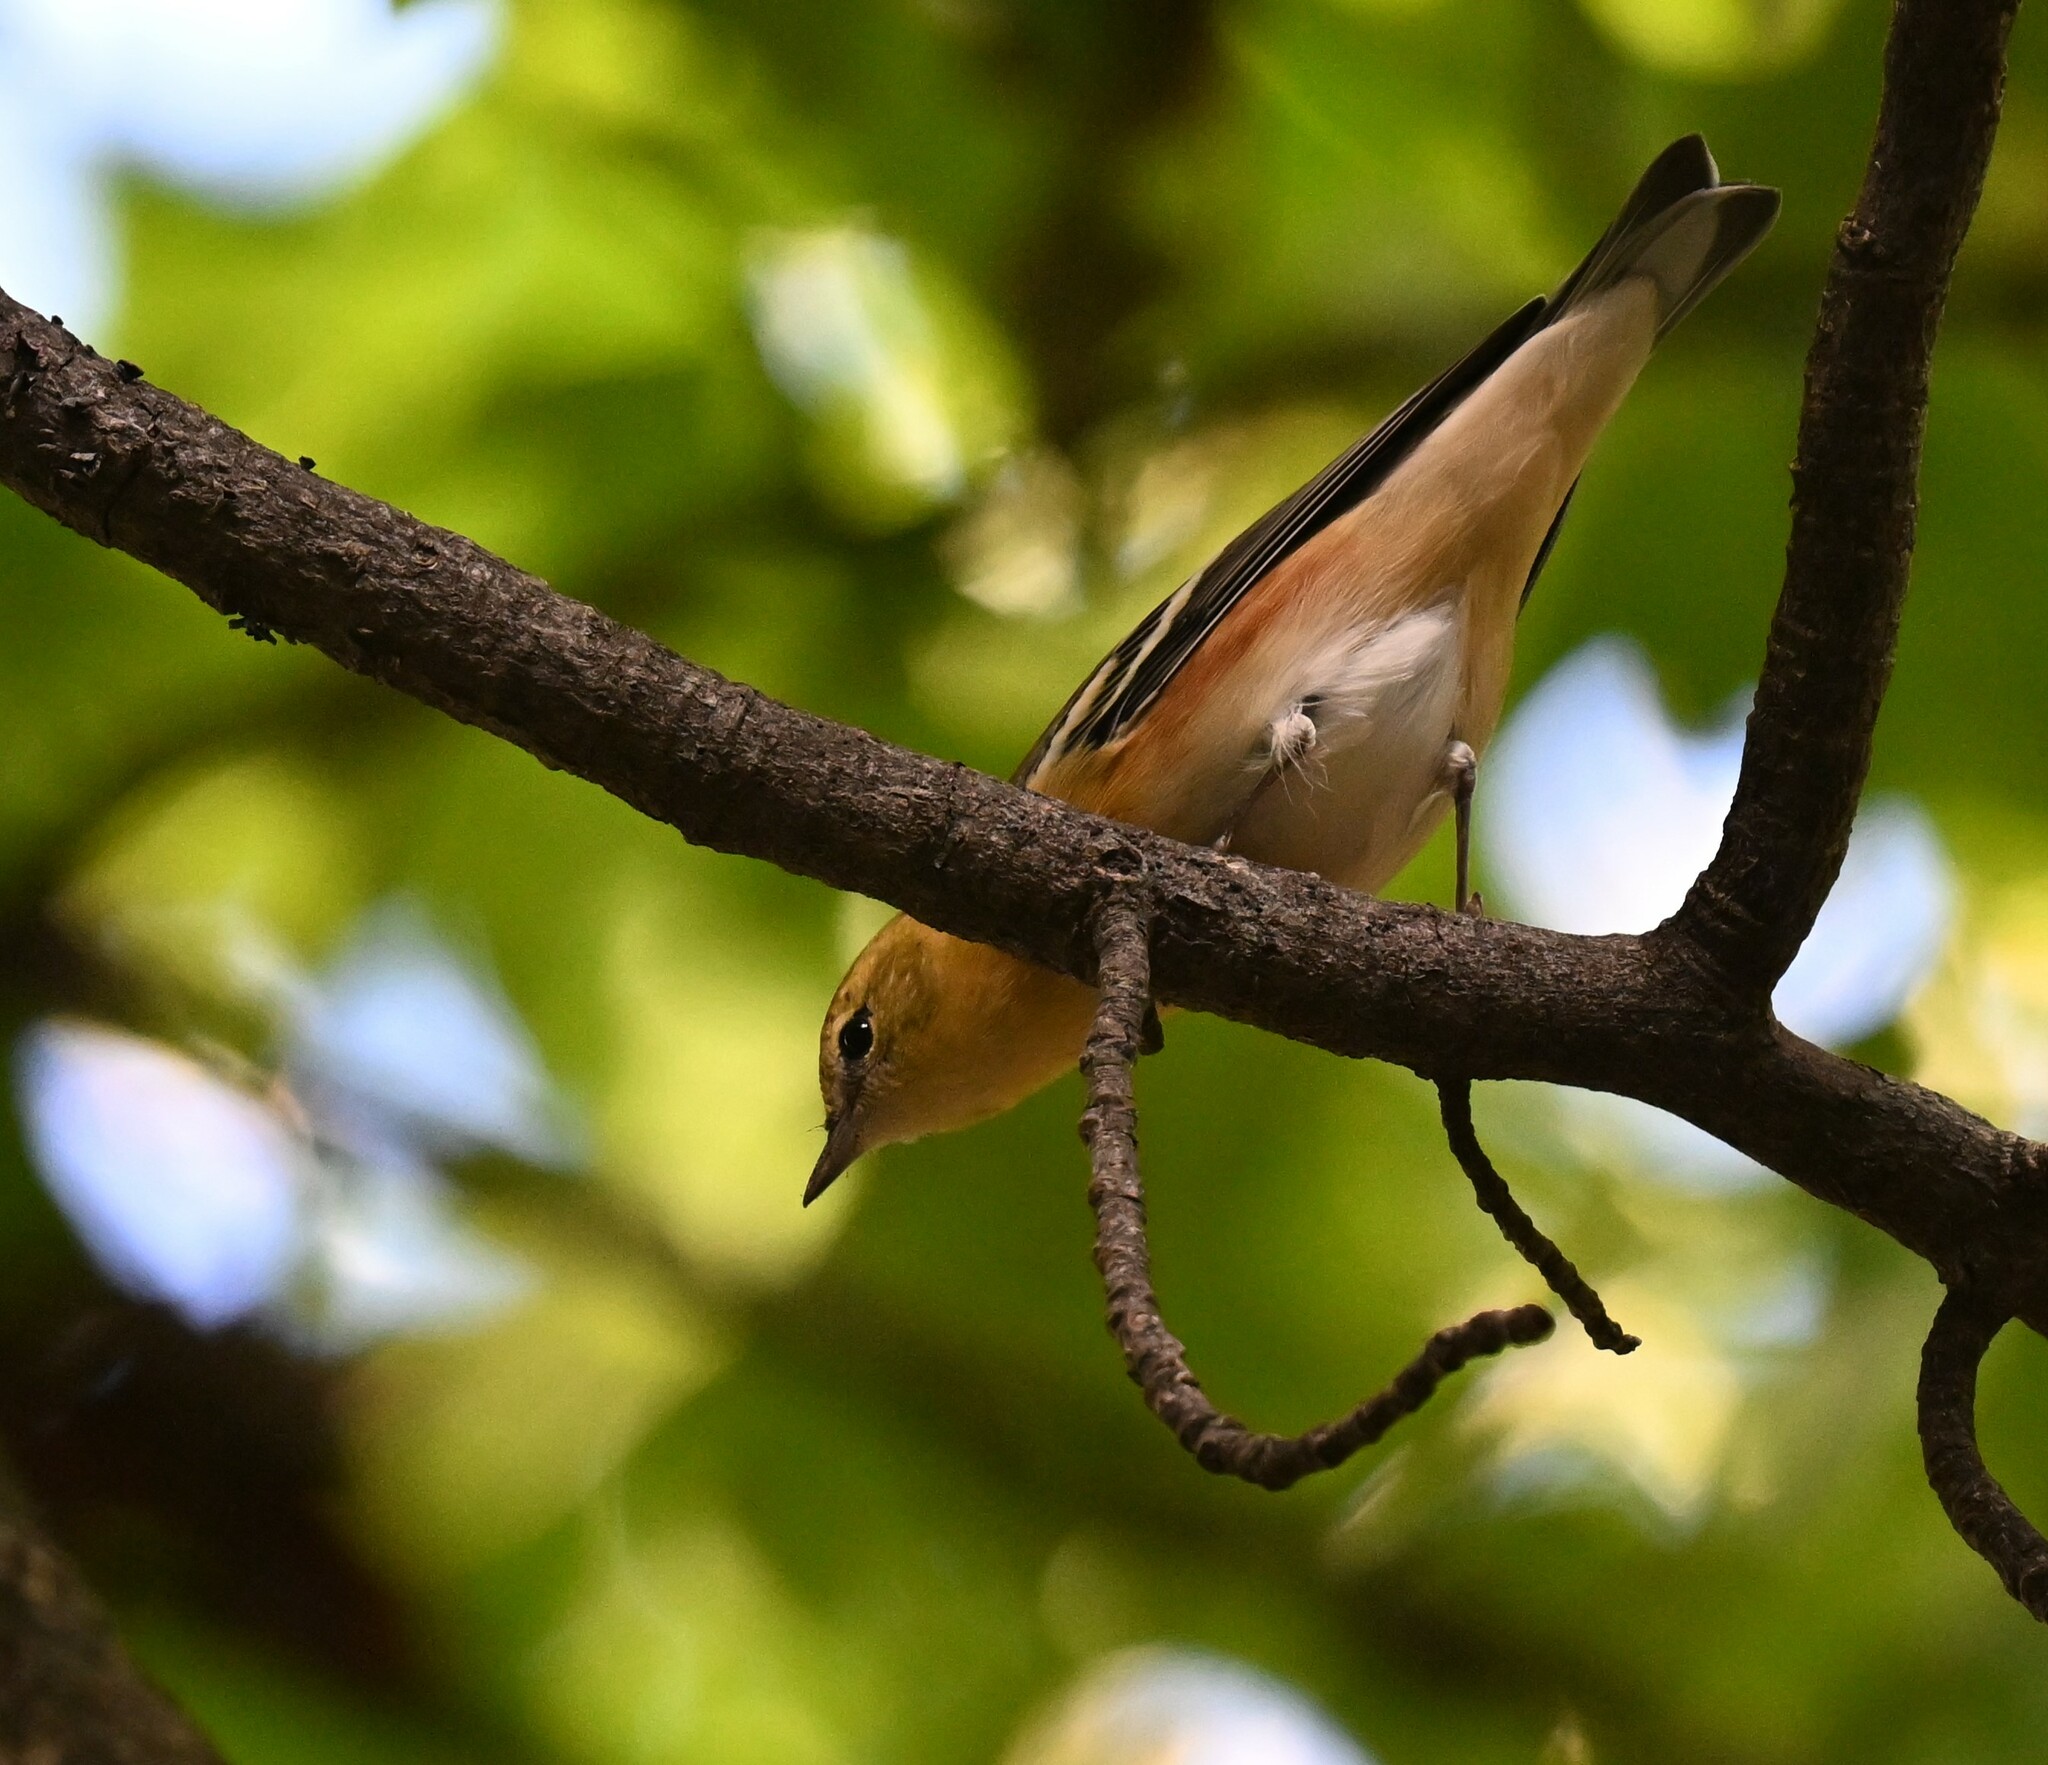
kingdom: Animalia
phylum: Chordata
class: Aves
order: Passeriformes
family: Parulidae
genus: Setophaga
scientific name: Setophaga castanea
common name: Bay-breasted warbler
